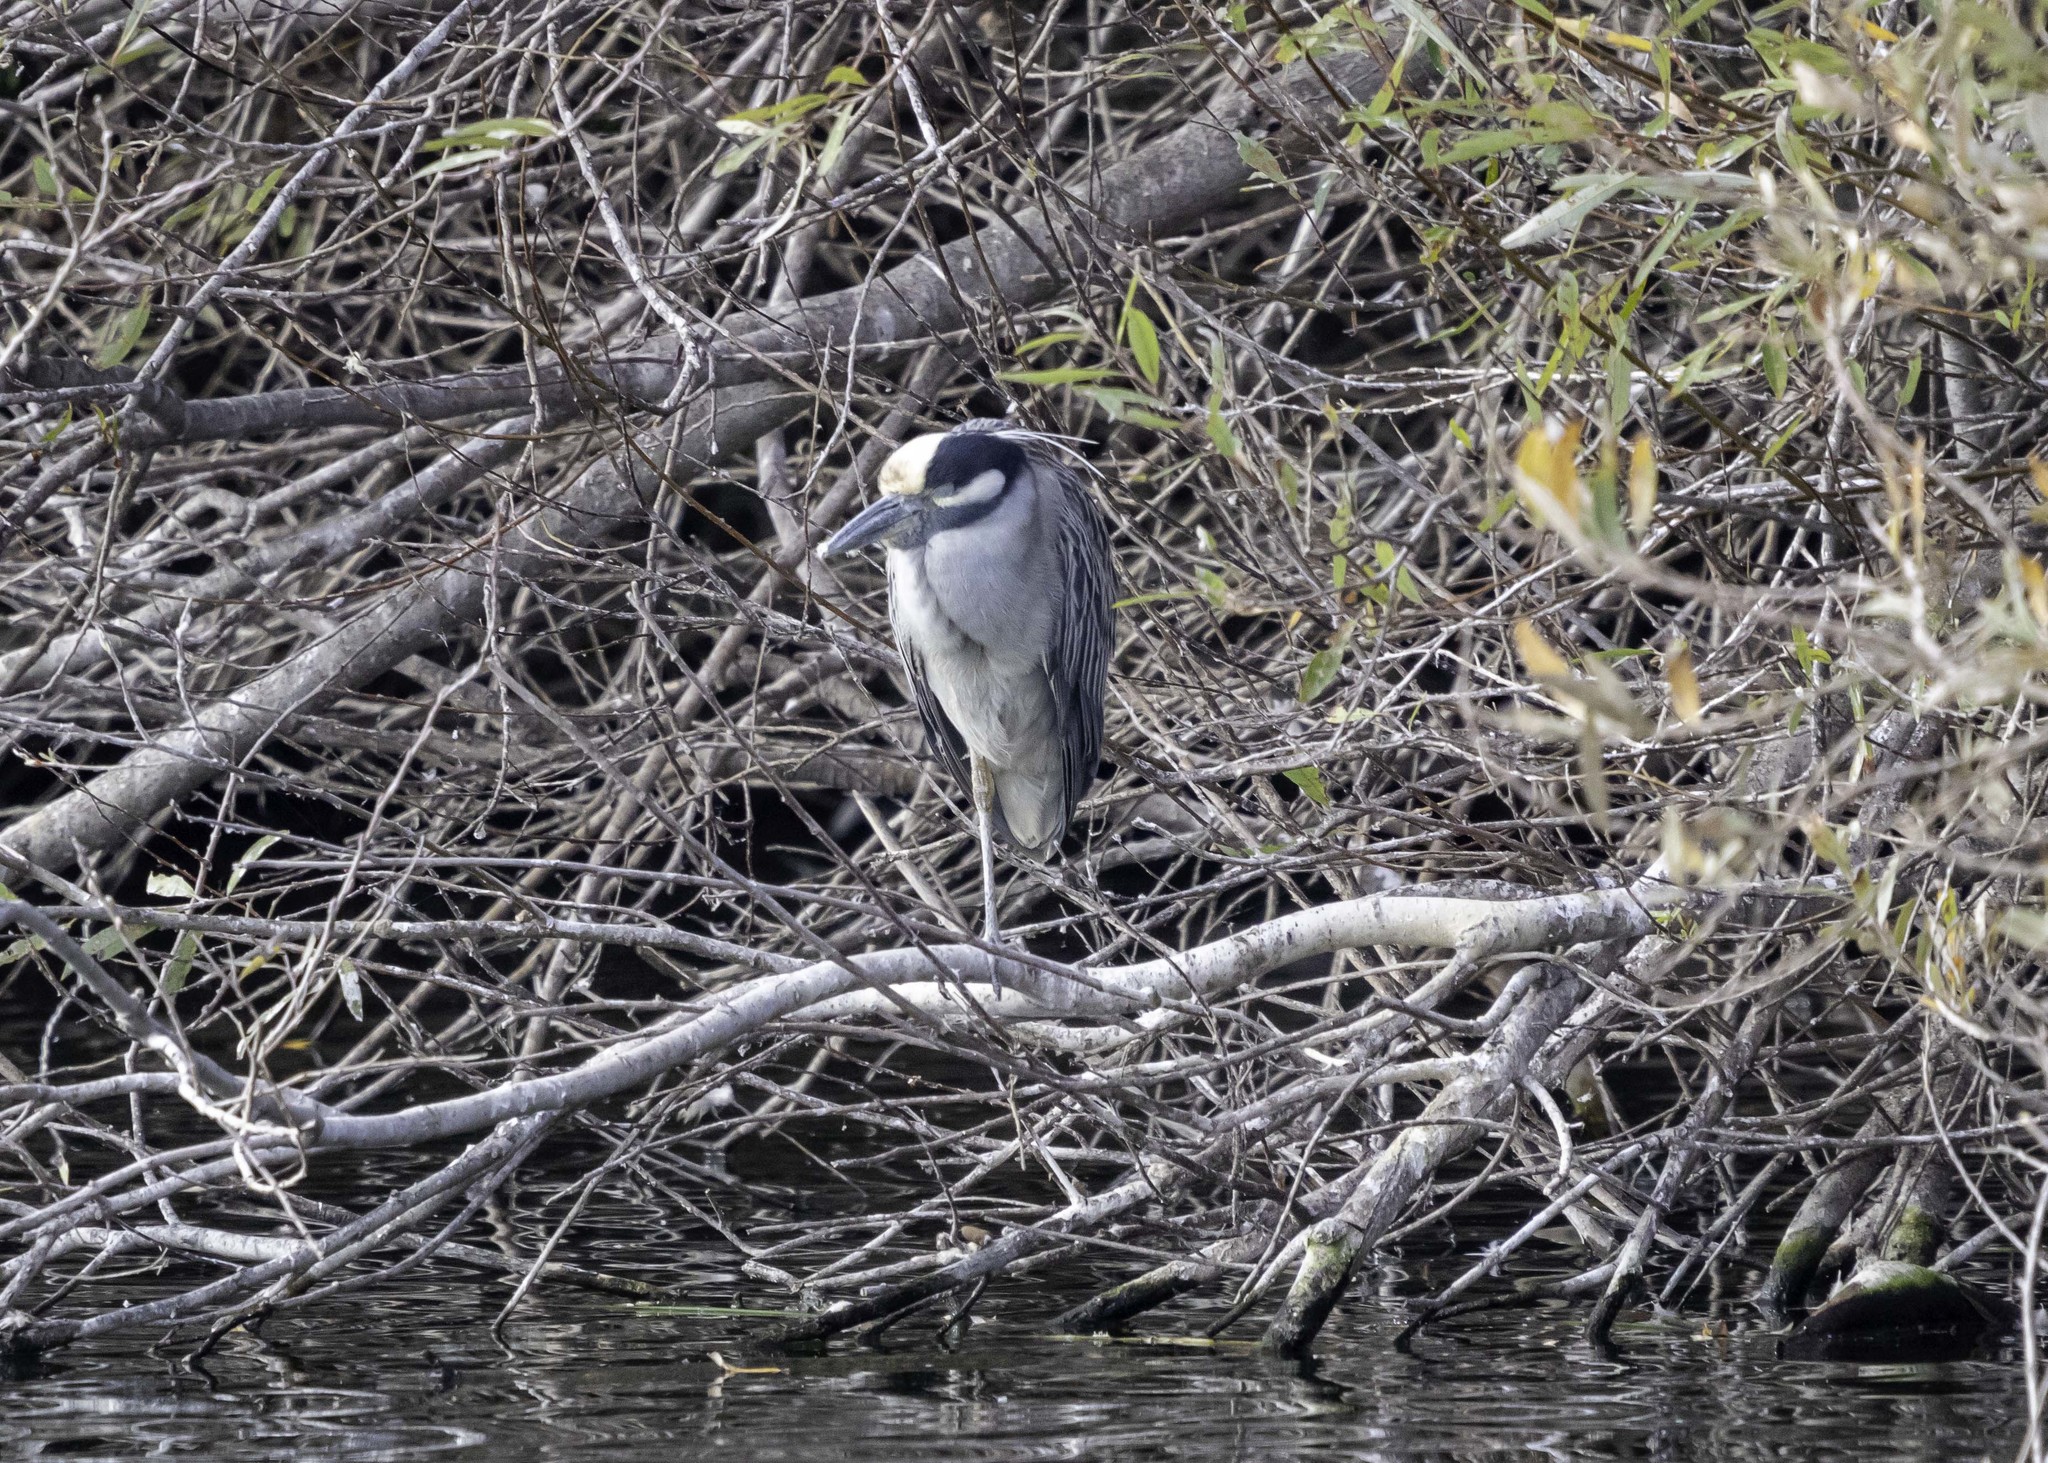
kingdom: Animalia
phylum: Chordata
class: Aves
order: Pelecaniformes
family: Ardeidae
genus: Nyctanassa
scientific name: Nyctanassa violacea
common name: Yellow-crowned night heron
